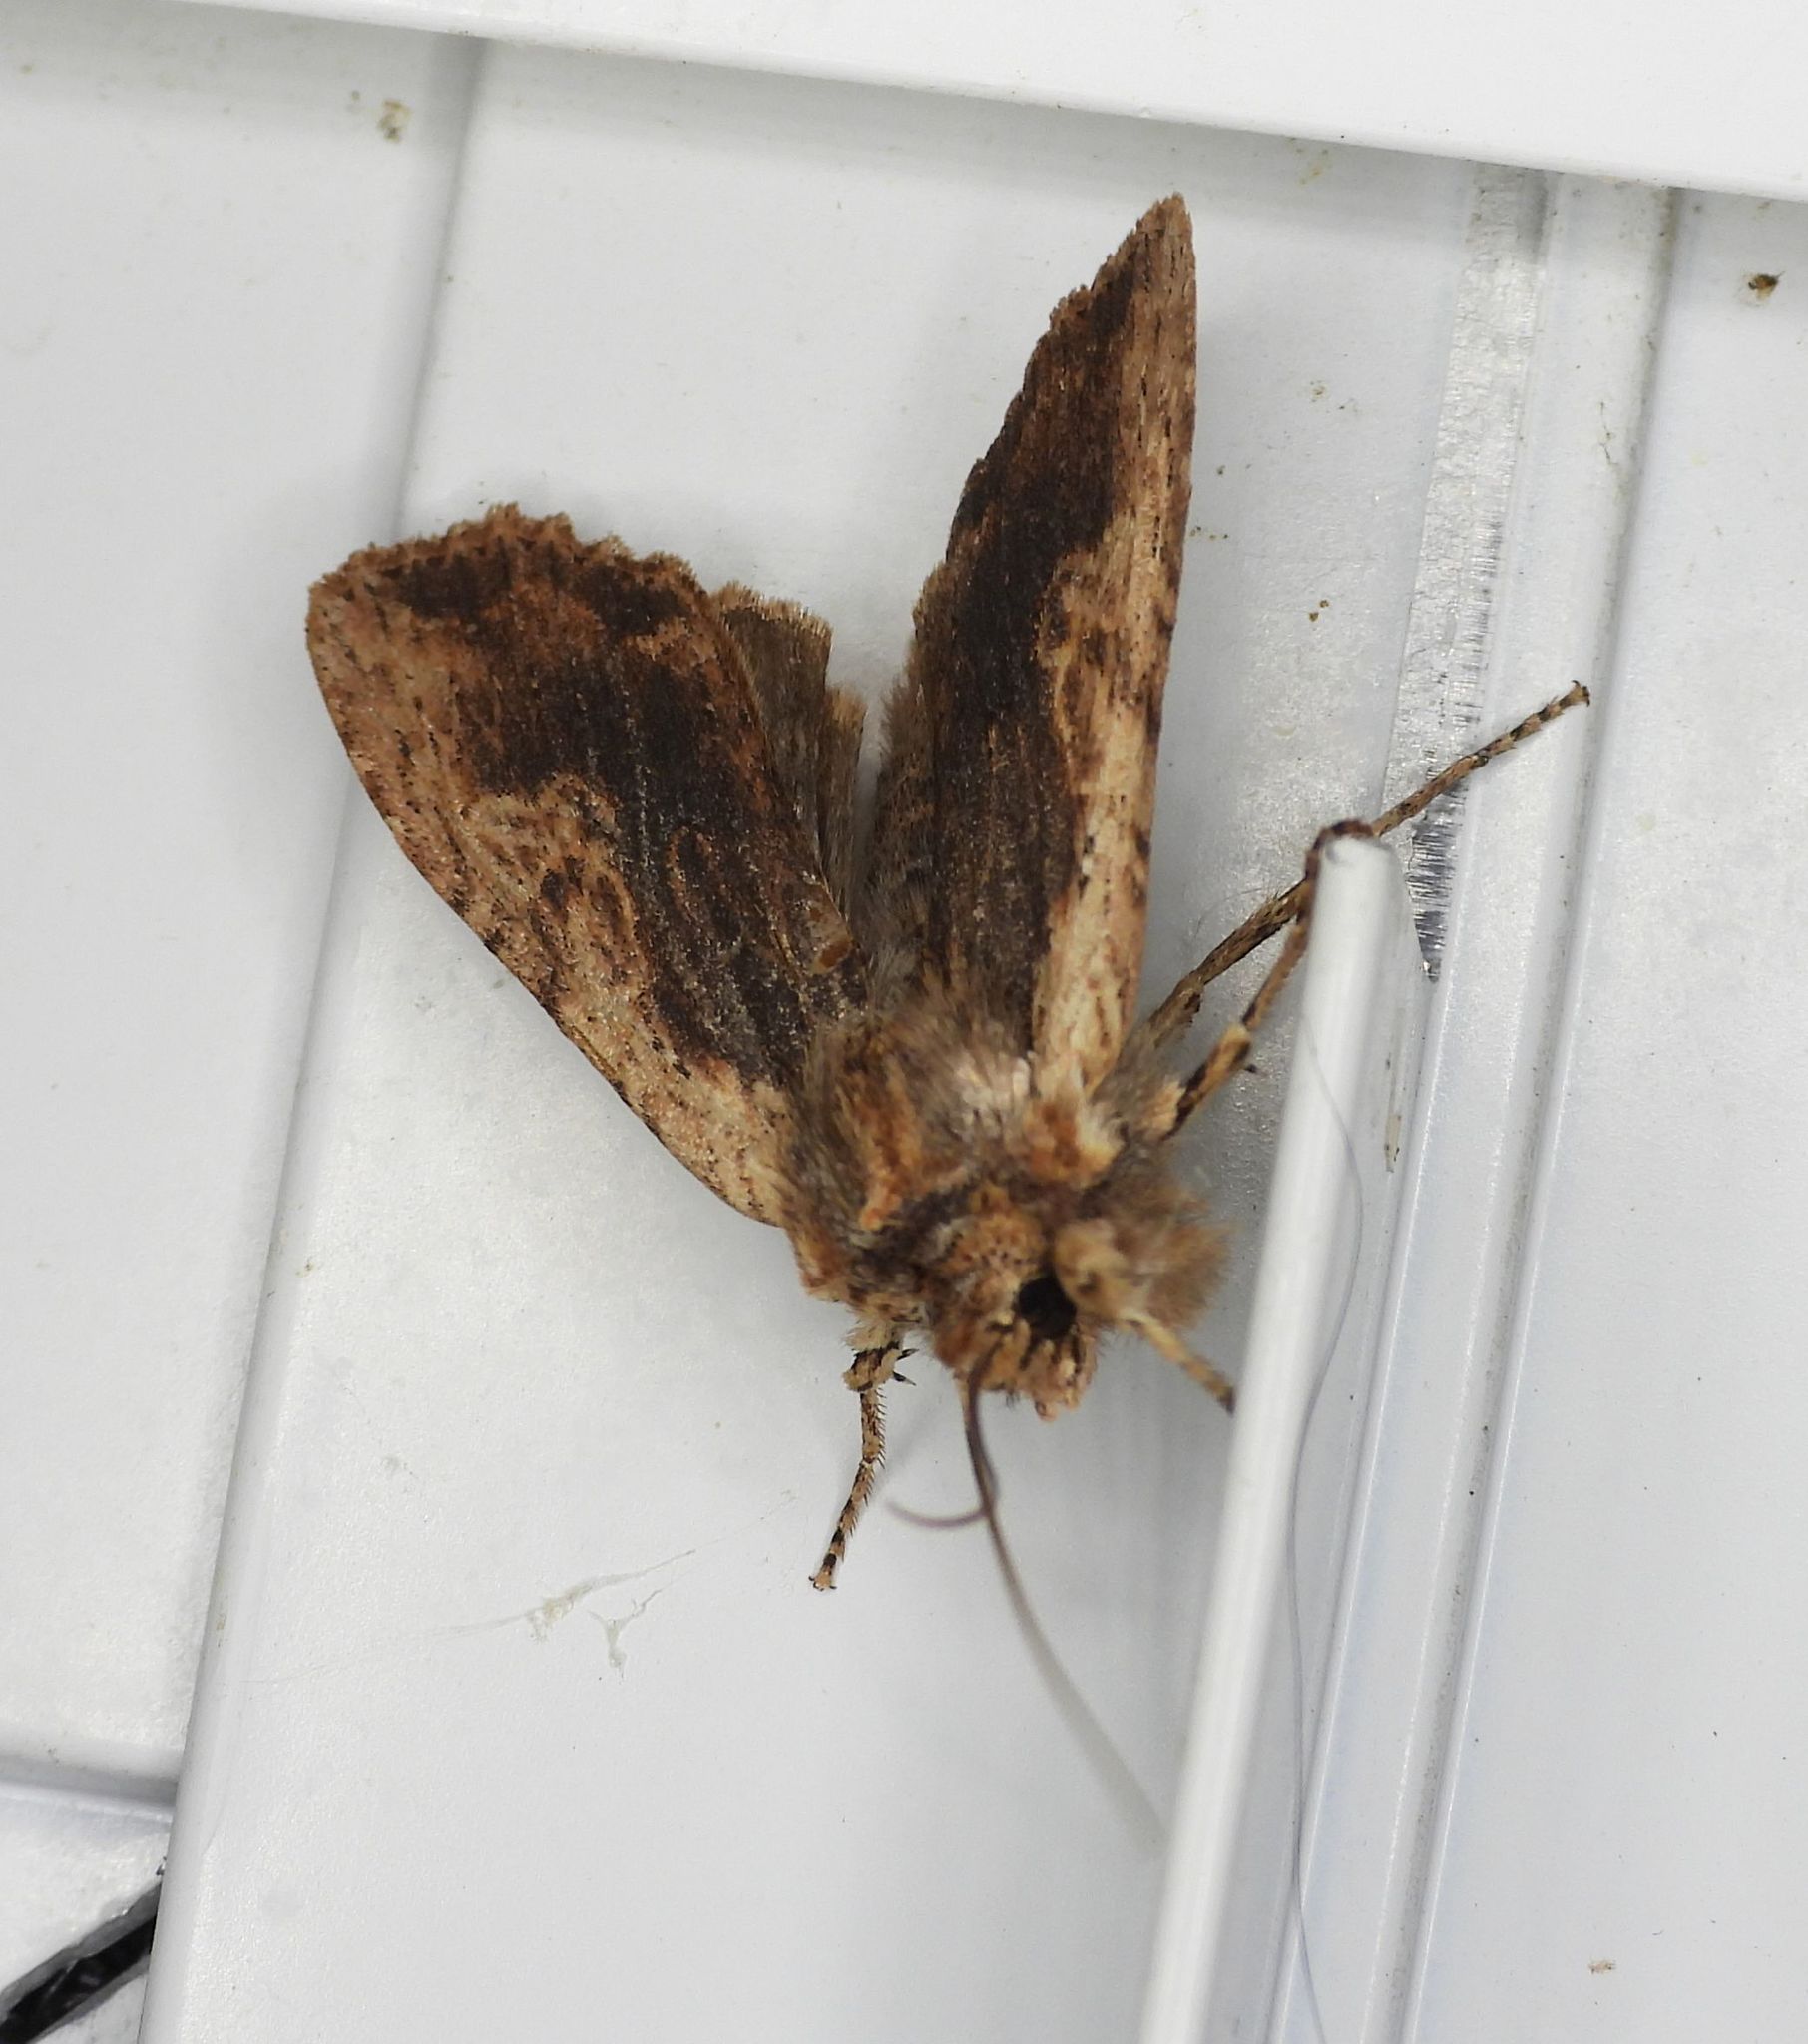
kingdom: Animalia
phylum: Arthropoda
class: Insecta
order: Lepidoptera
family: Noctuidae
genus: Lithophane
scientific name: Lithophane petulca
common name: Wanton pinion
